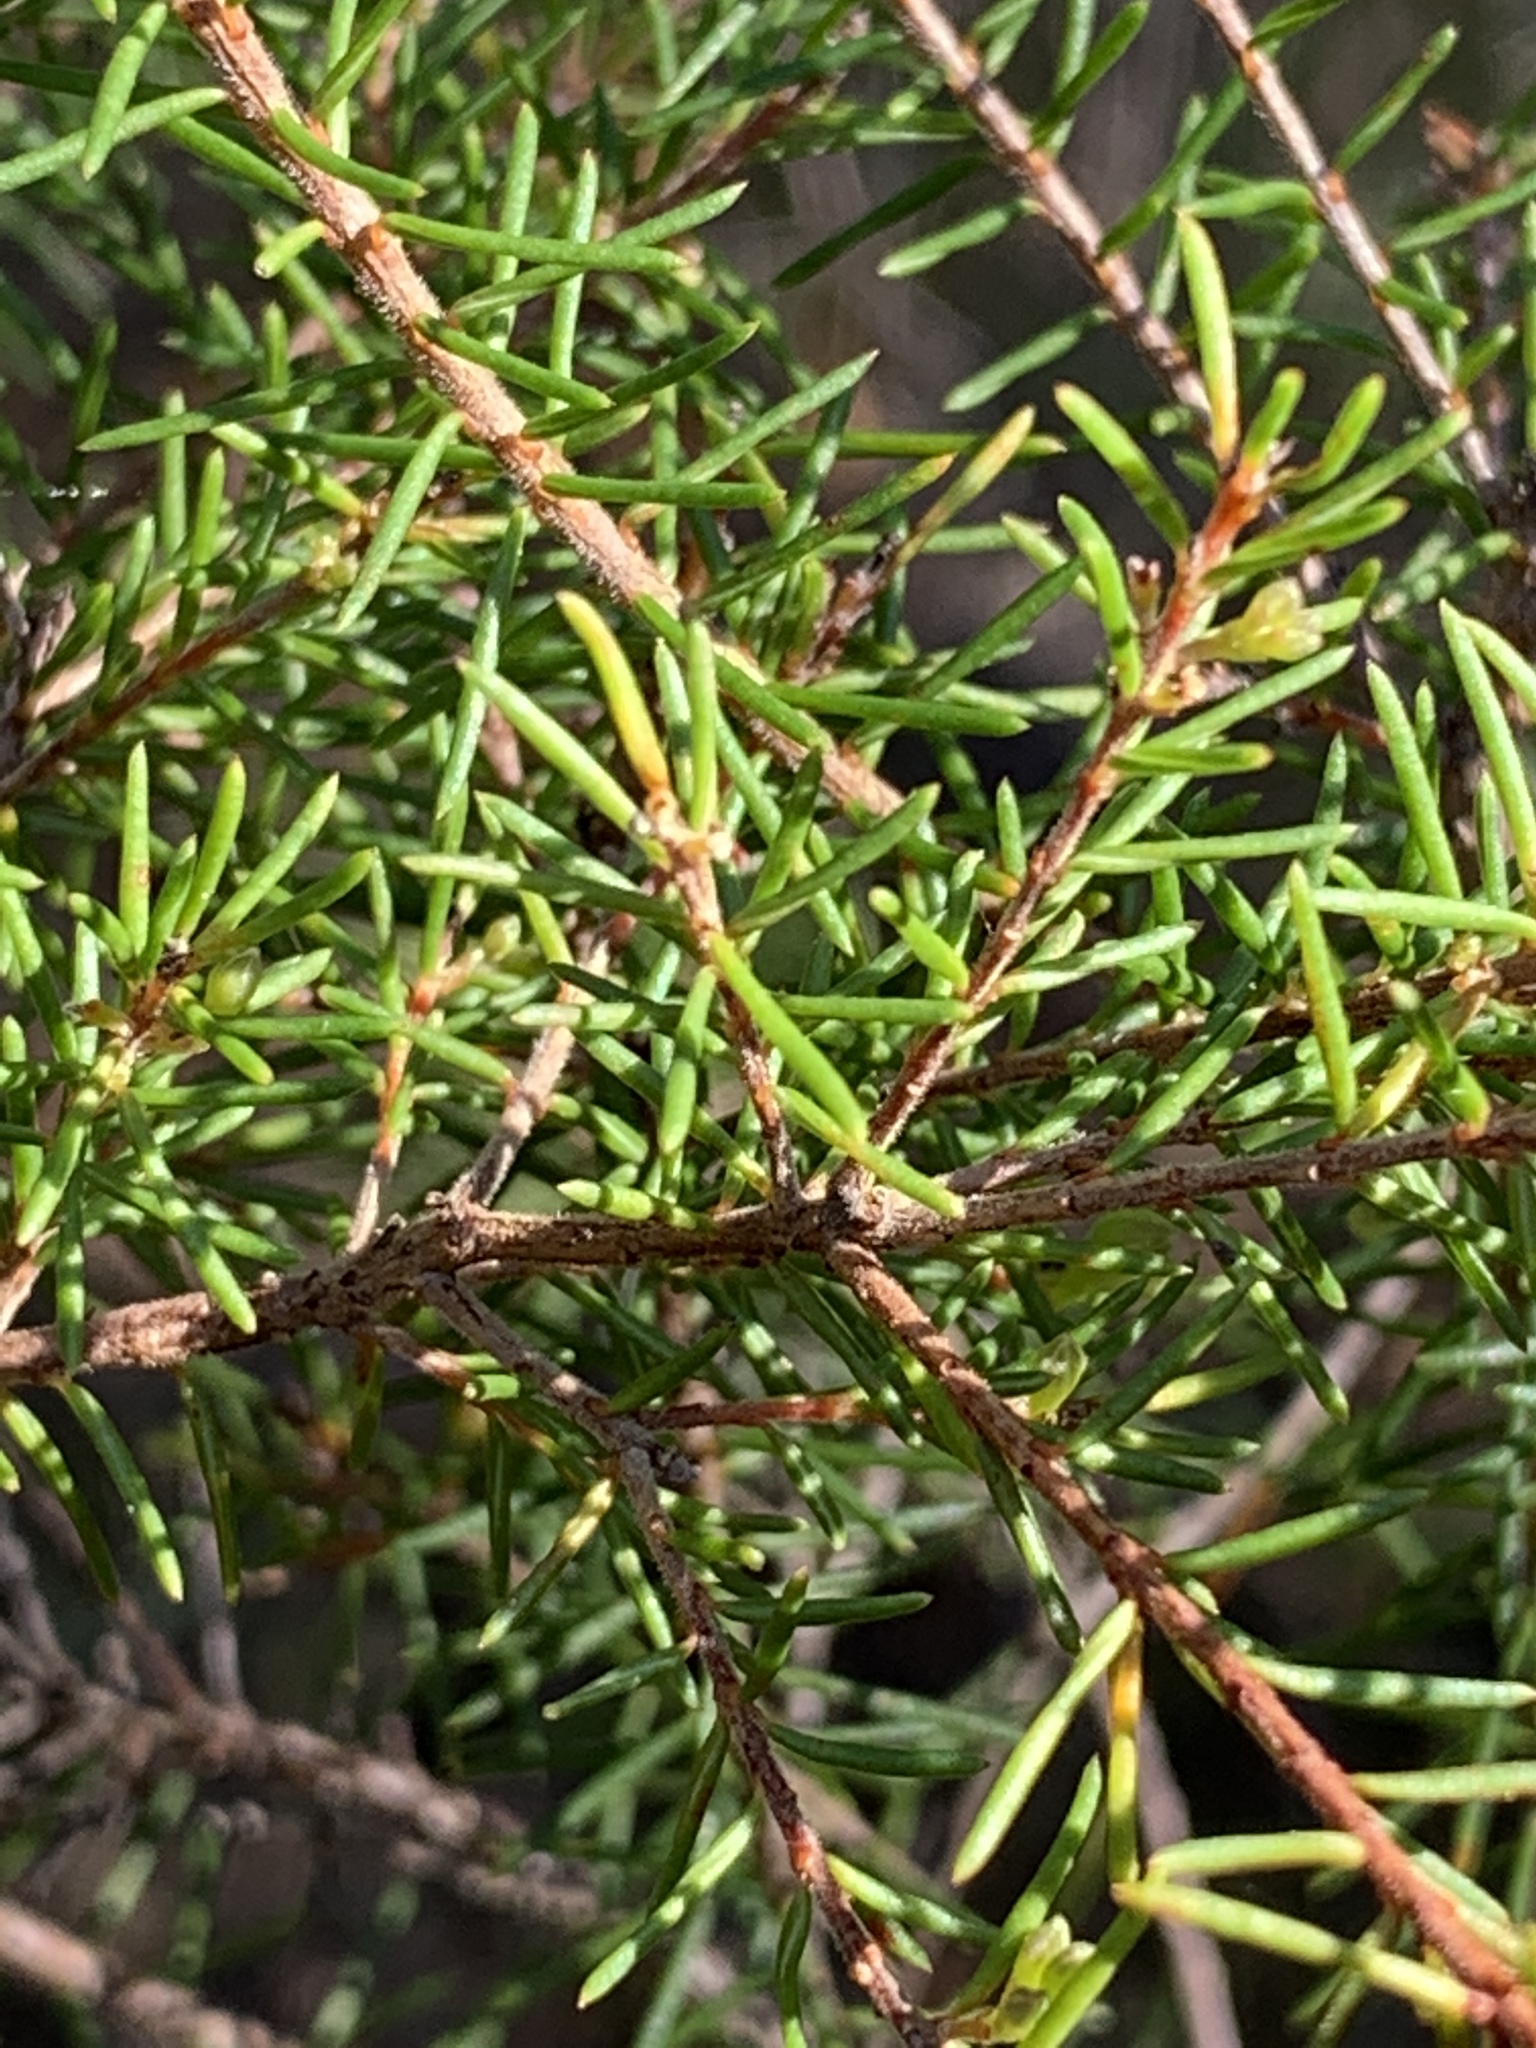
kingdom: Plantae
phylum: Tracheophyta
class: Magnoliopsida
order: Fabales
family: Fabaceae
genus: Dillwynia
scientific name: Dillwynia retorta
